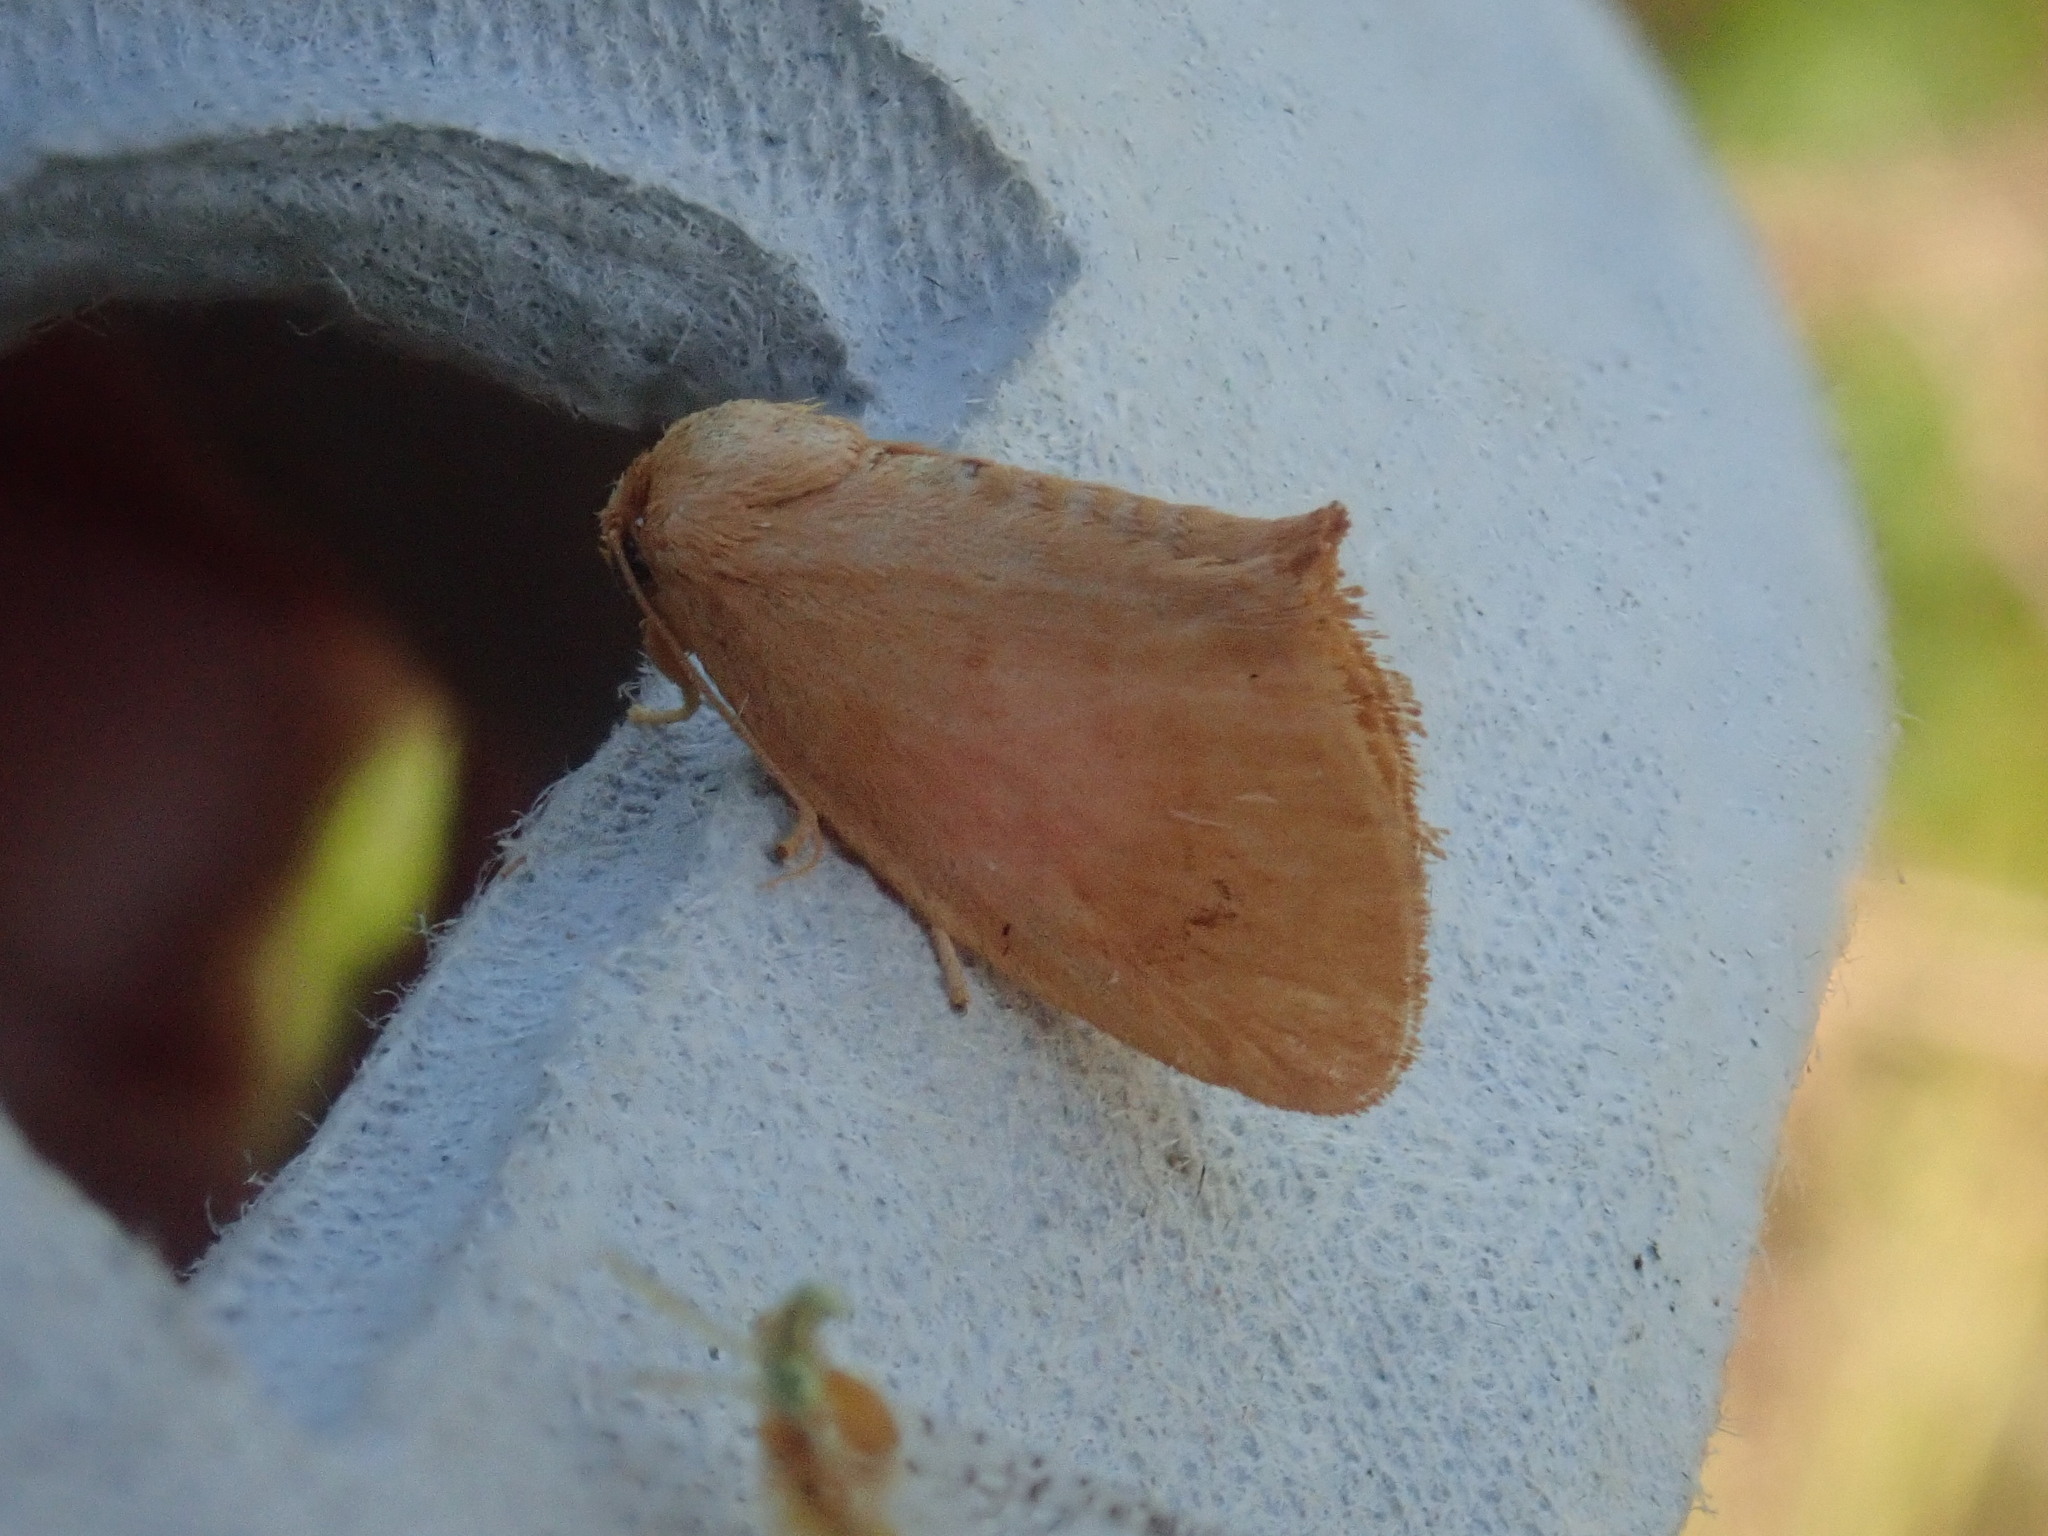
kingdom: Animalia
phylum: Arthropoda
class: Insecta
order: Lepidoptera
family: Limacodidae
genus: Tortricidia
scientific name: Tortricidia pallida
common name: Red-crossed button slug moth
